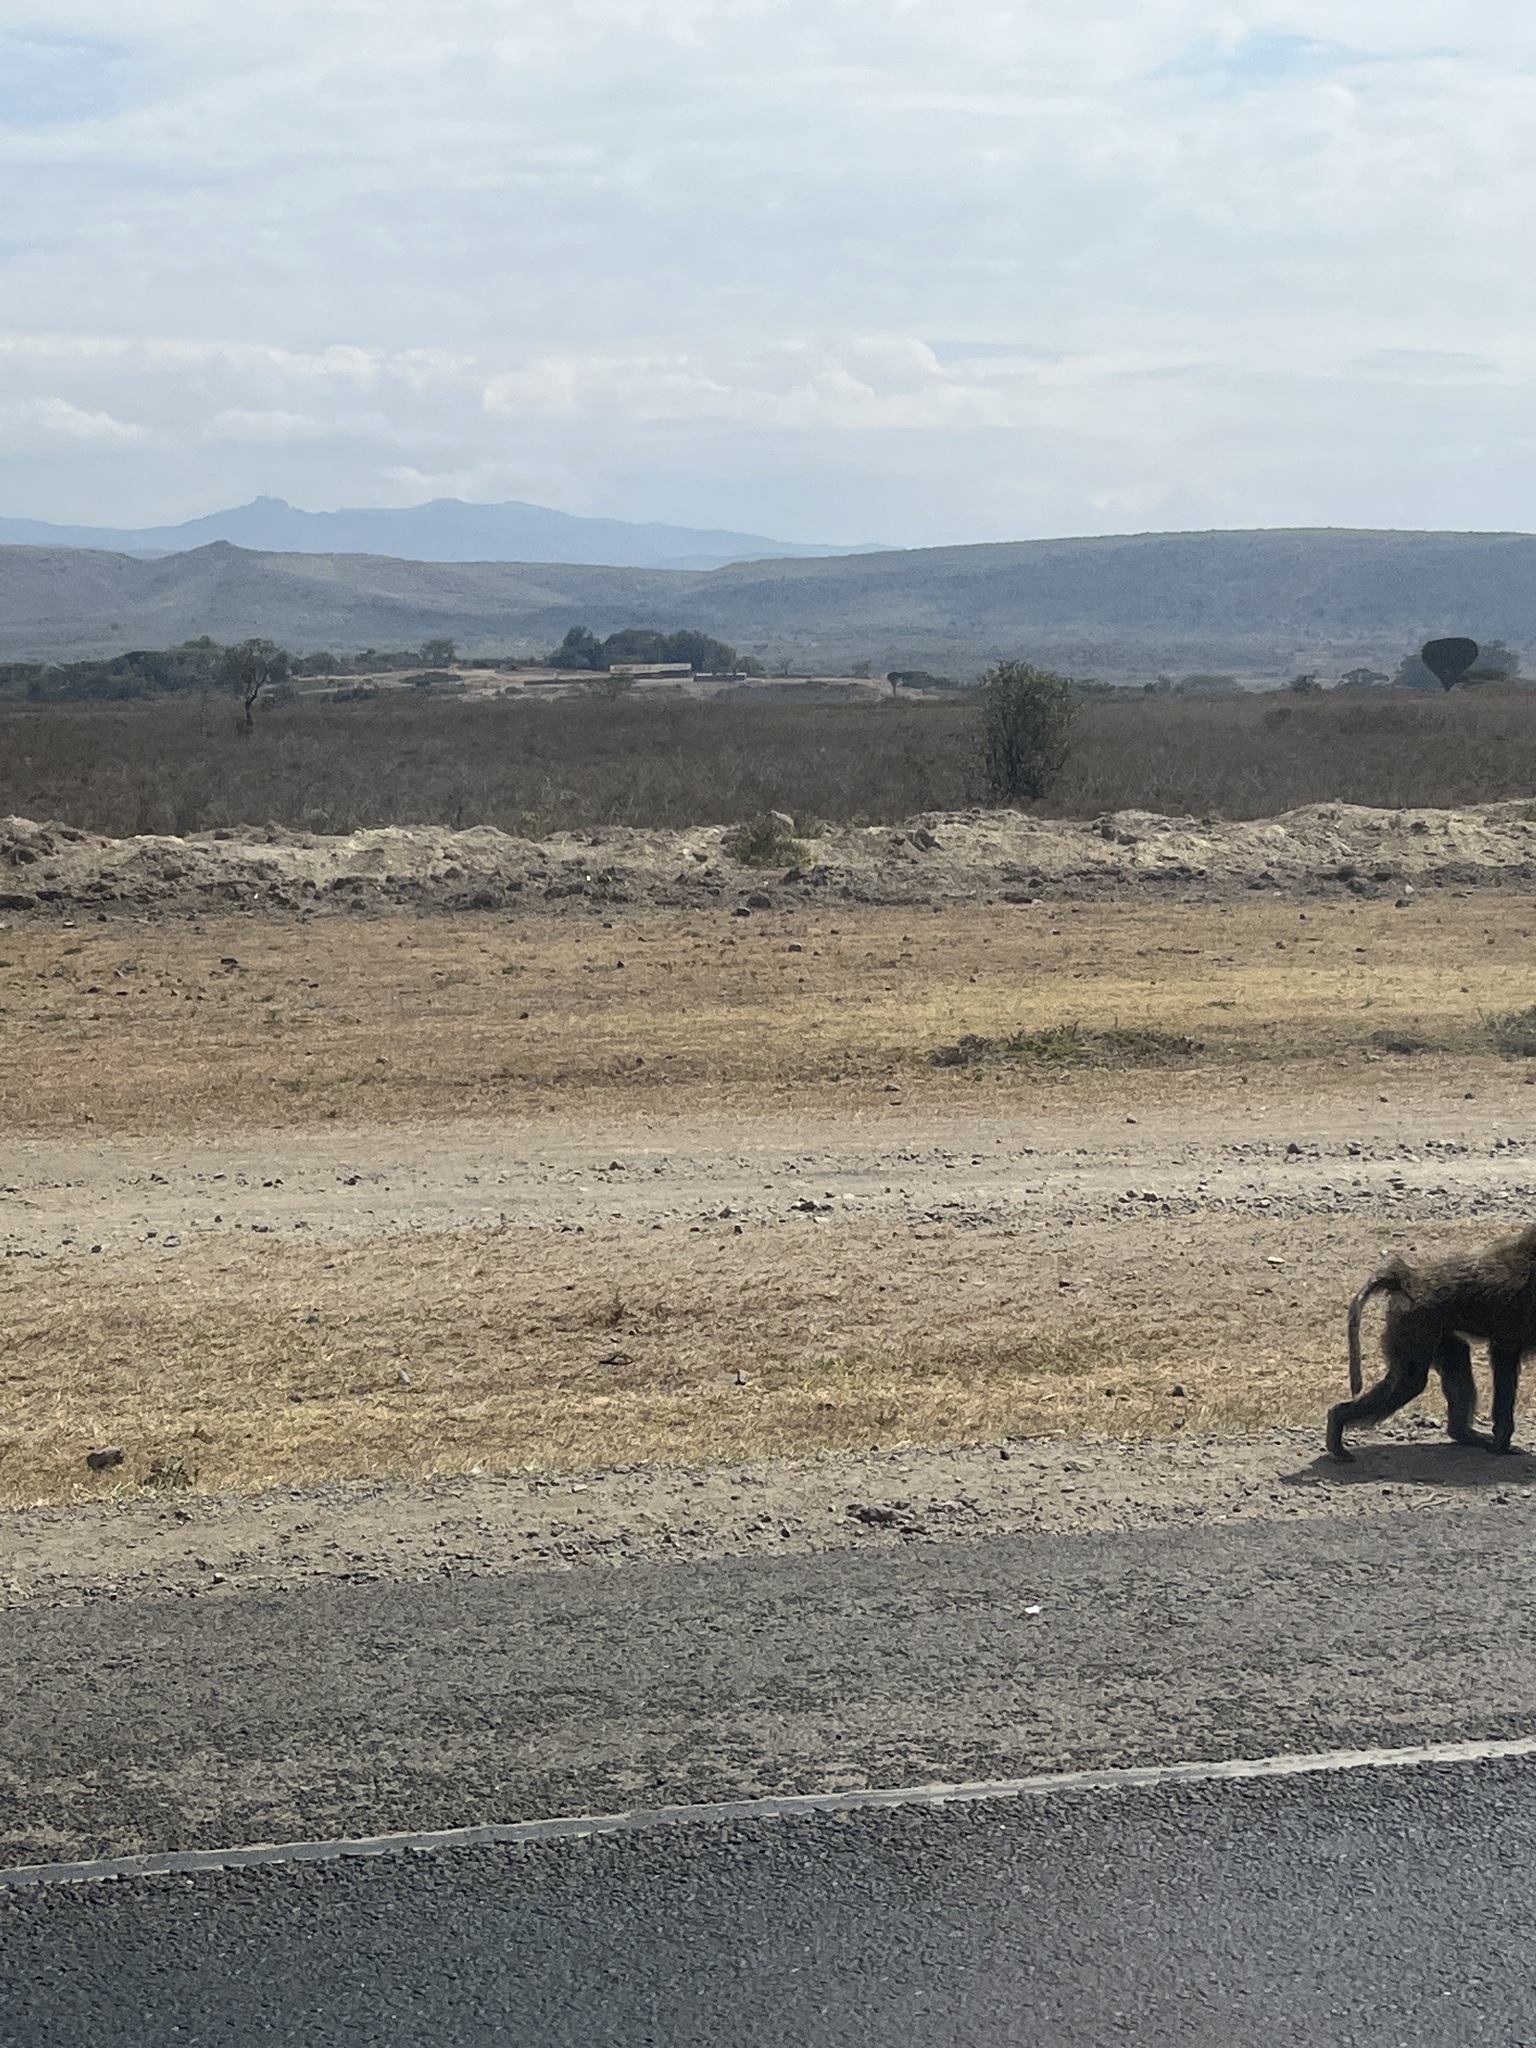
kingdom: Animalia
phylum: Chordata
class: Mammalia
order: Primates
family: Cercopithecidae
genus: Papio
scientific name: Papio anubis
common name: Olive baboon
